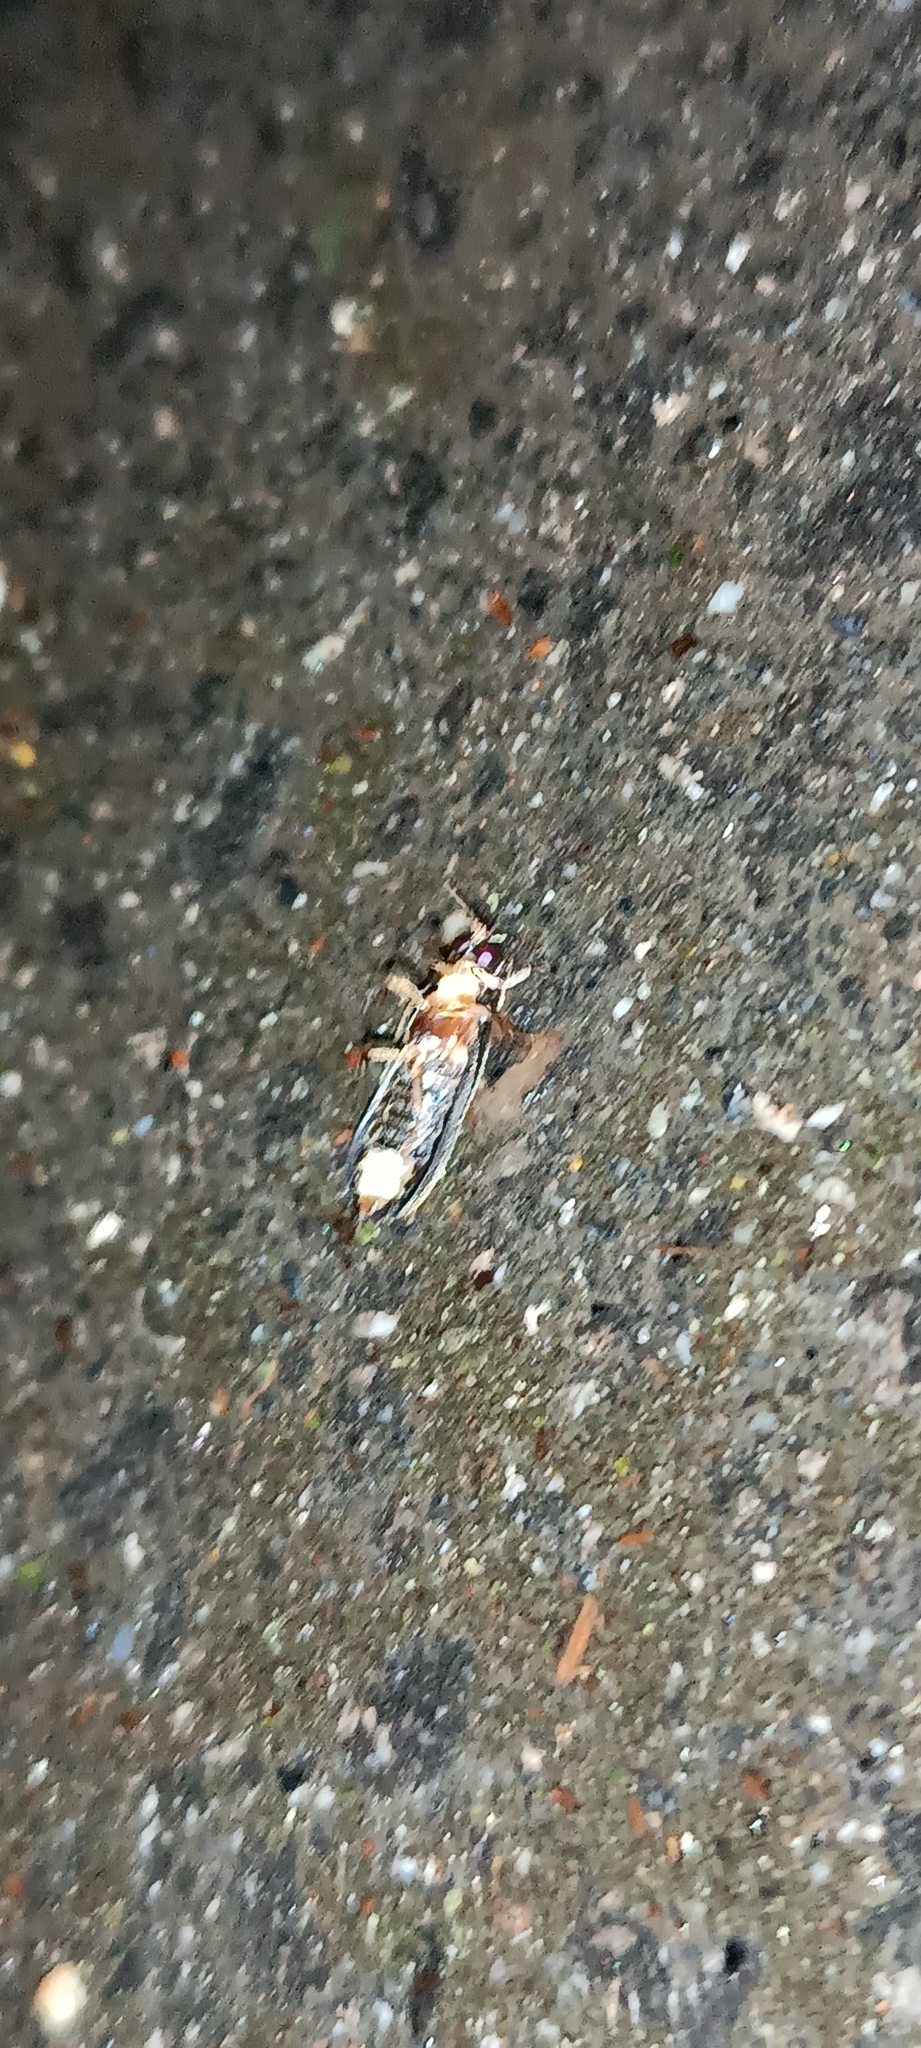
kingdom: Animalia
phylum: Arthropoda
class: Insecta
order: Coleoptera
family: Lampyridae
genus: Lamprohiza
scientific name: Lamprohiza splendidula
